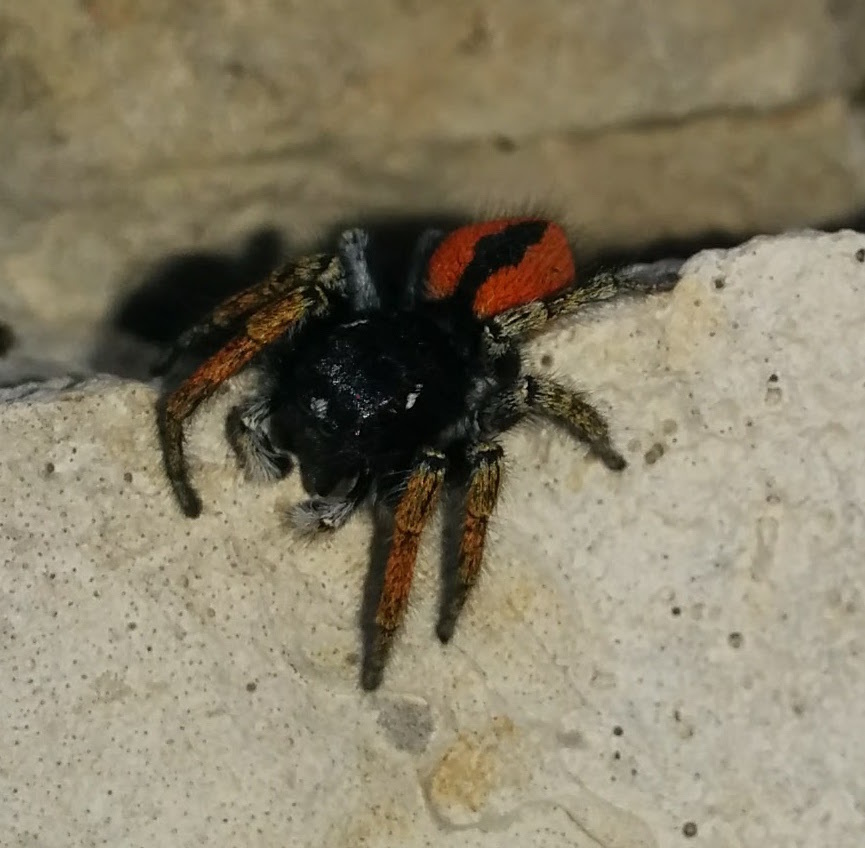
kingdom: Animalia
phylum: Arthropoda
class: Arachnida
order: Araneae
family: Salticidae
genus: Philaeus
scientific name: Philaeus chrysops
